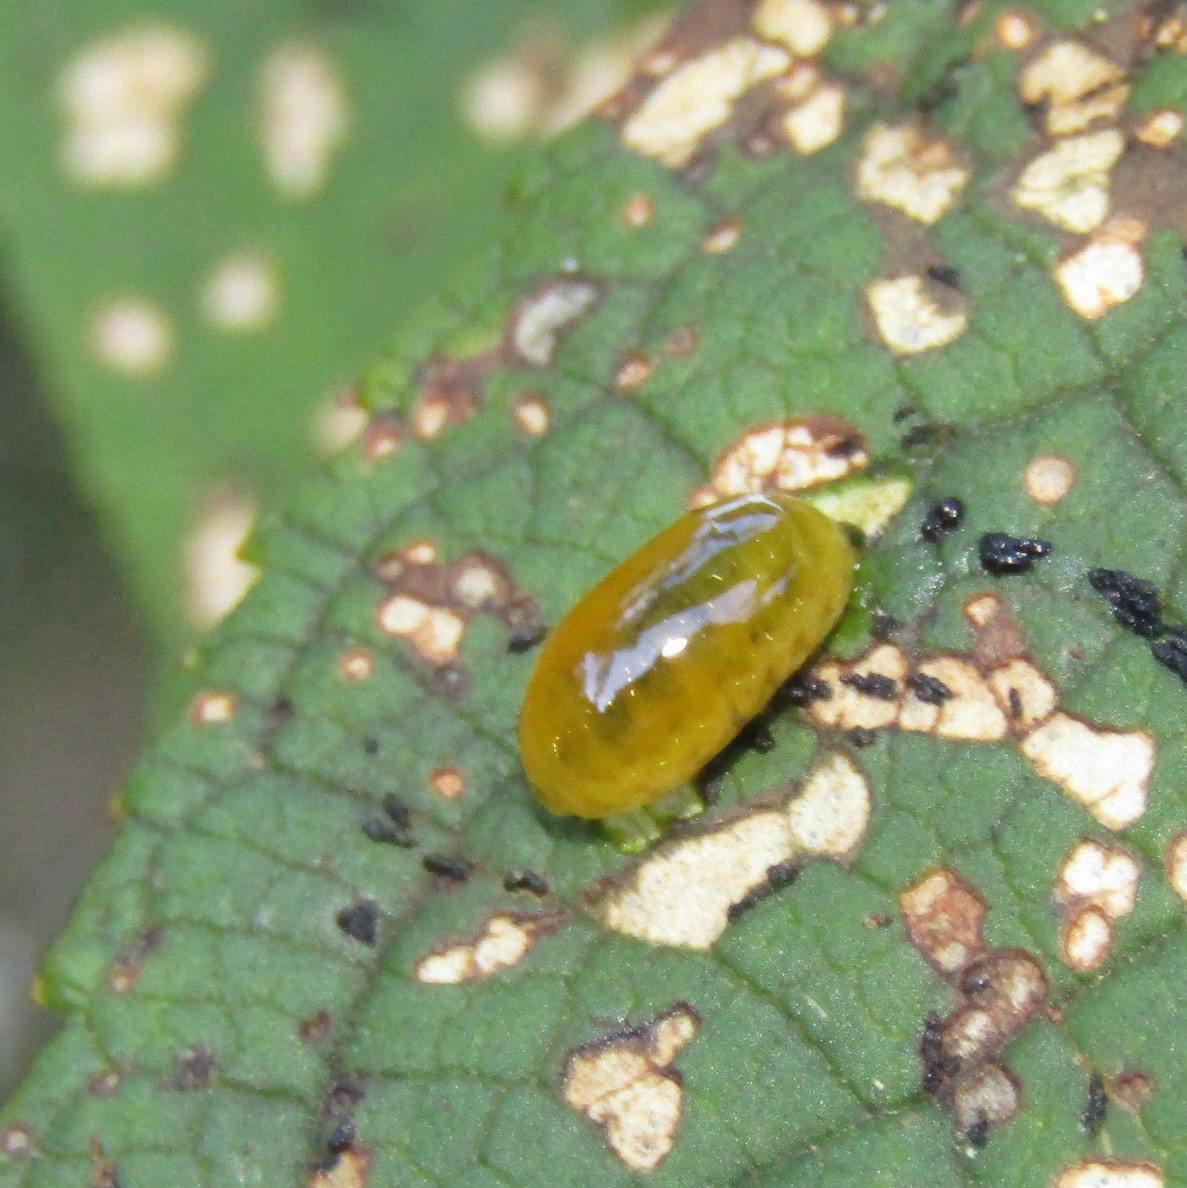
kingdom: Animalia
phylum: Arthropoda
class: Insecta
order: Coleoptera
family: Curculionidae
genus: Cleopus
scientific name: Cleopus japonicus
